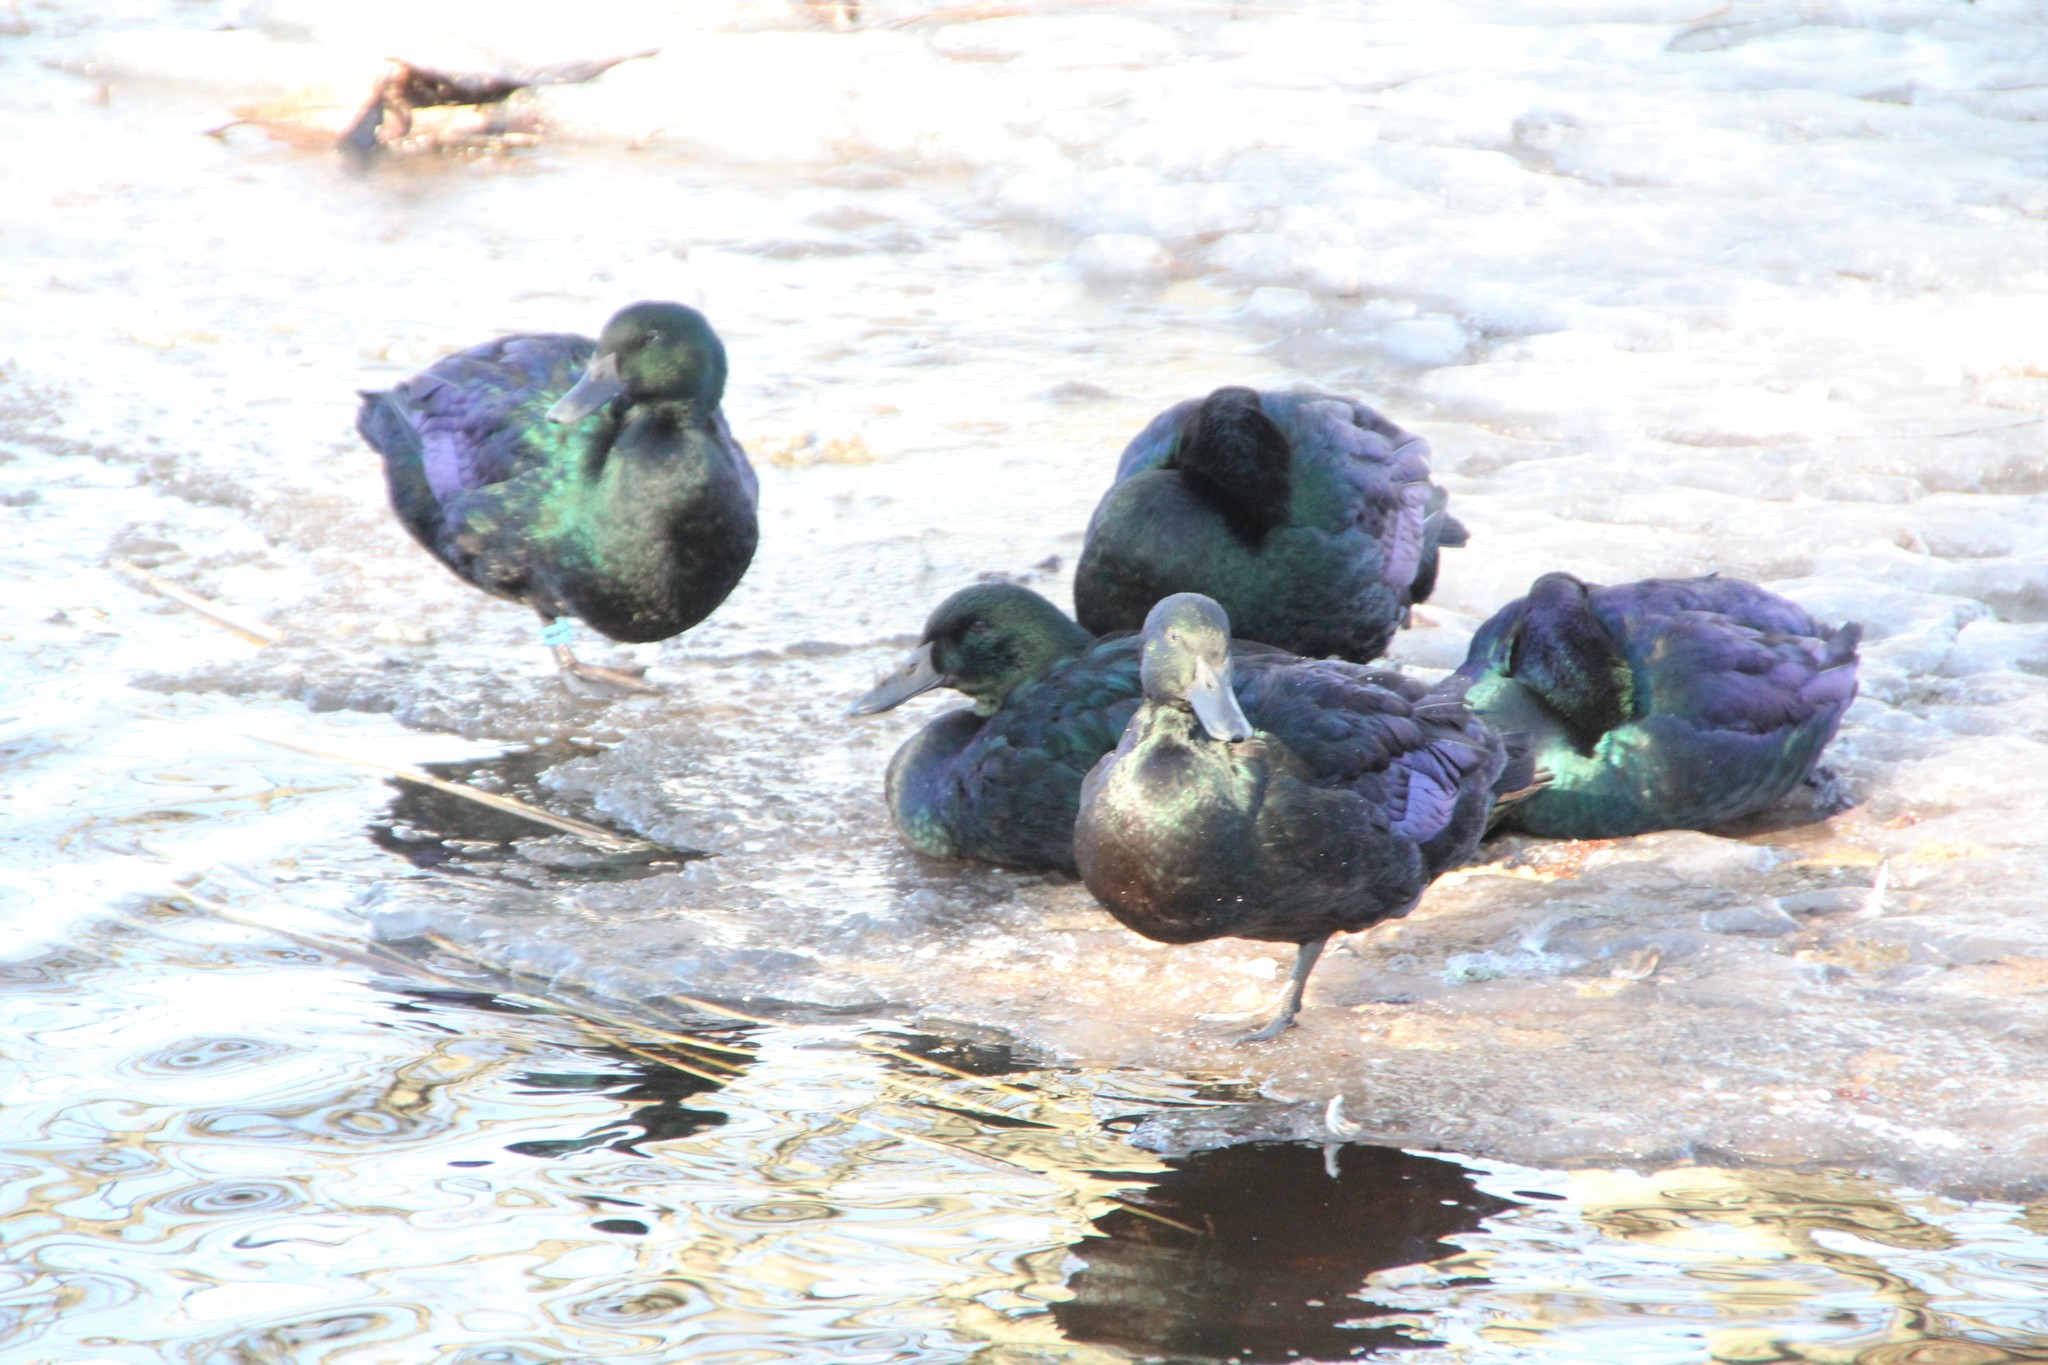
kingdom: Animalia
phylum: Chordata
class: Aves
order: Anseriformes
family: Anatidae
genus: Anas
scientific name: Anas platyrhynchos
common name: Mallard
